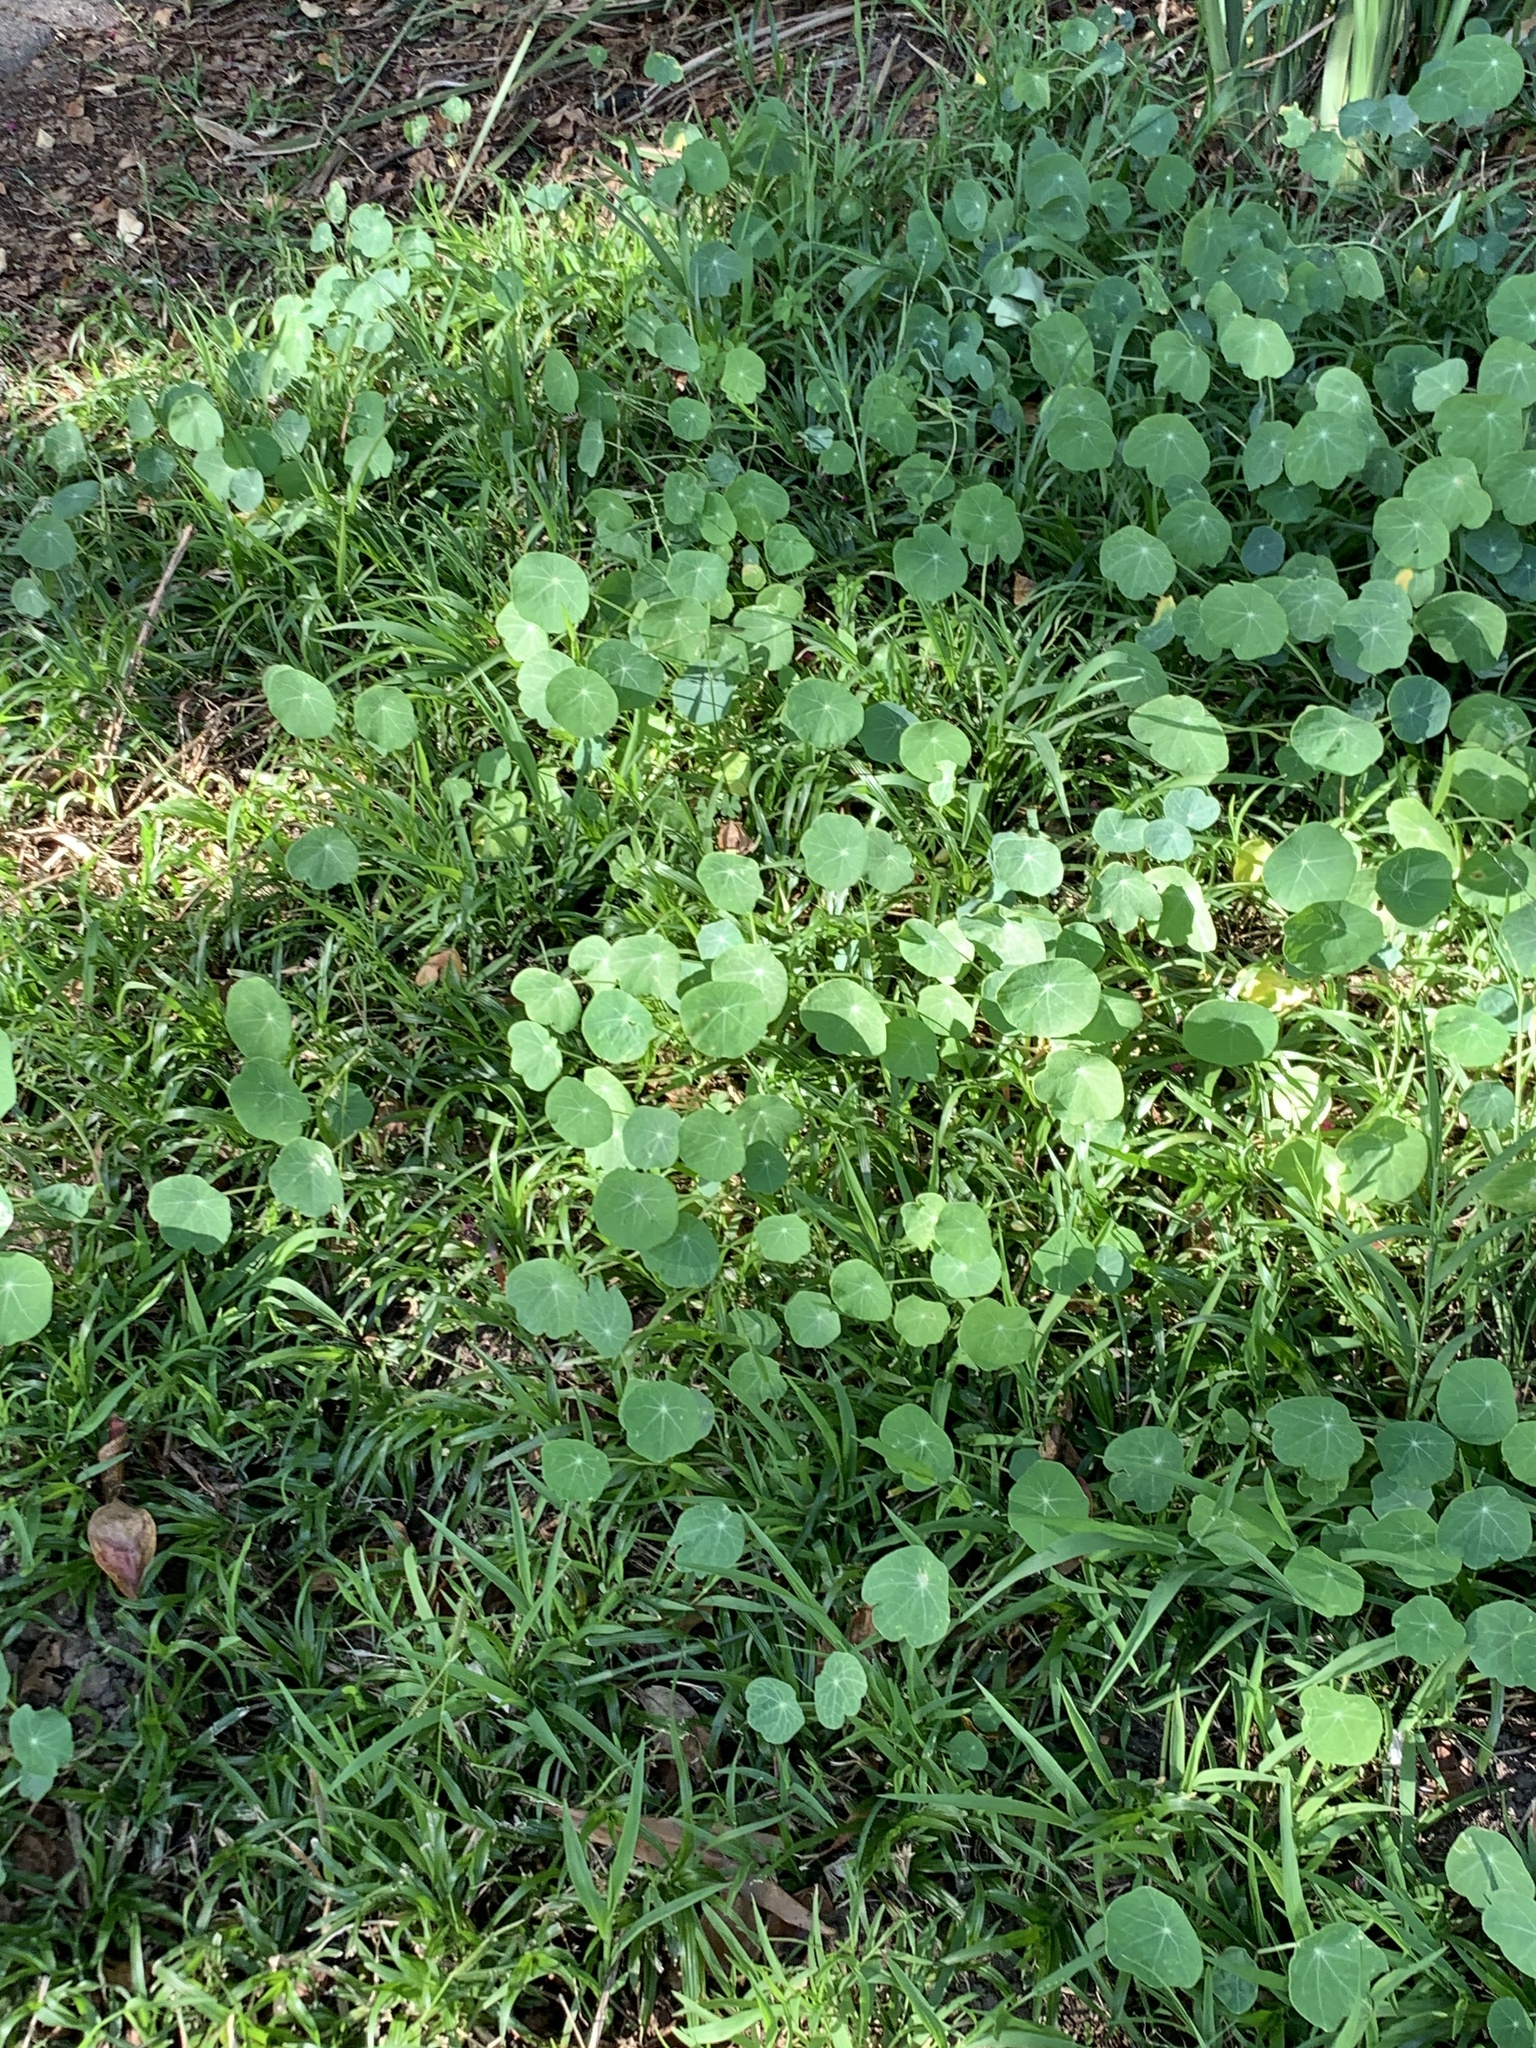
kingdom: Plantae
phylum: Tracheophyta
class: Magnoliopsida
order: Brassicales
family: Tropaeolaceae
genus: Tropaeolum
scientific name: Tropaeolum majus
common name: Nasturtium
